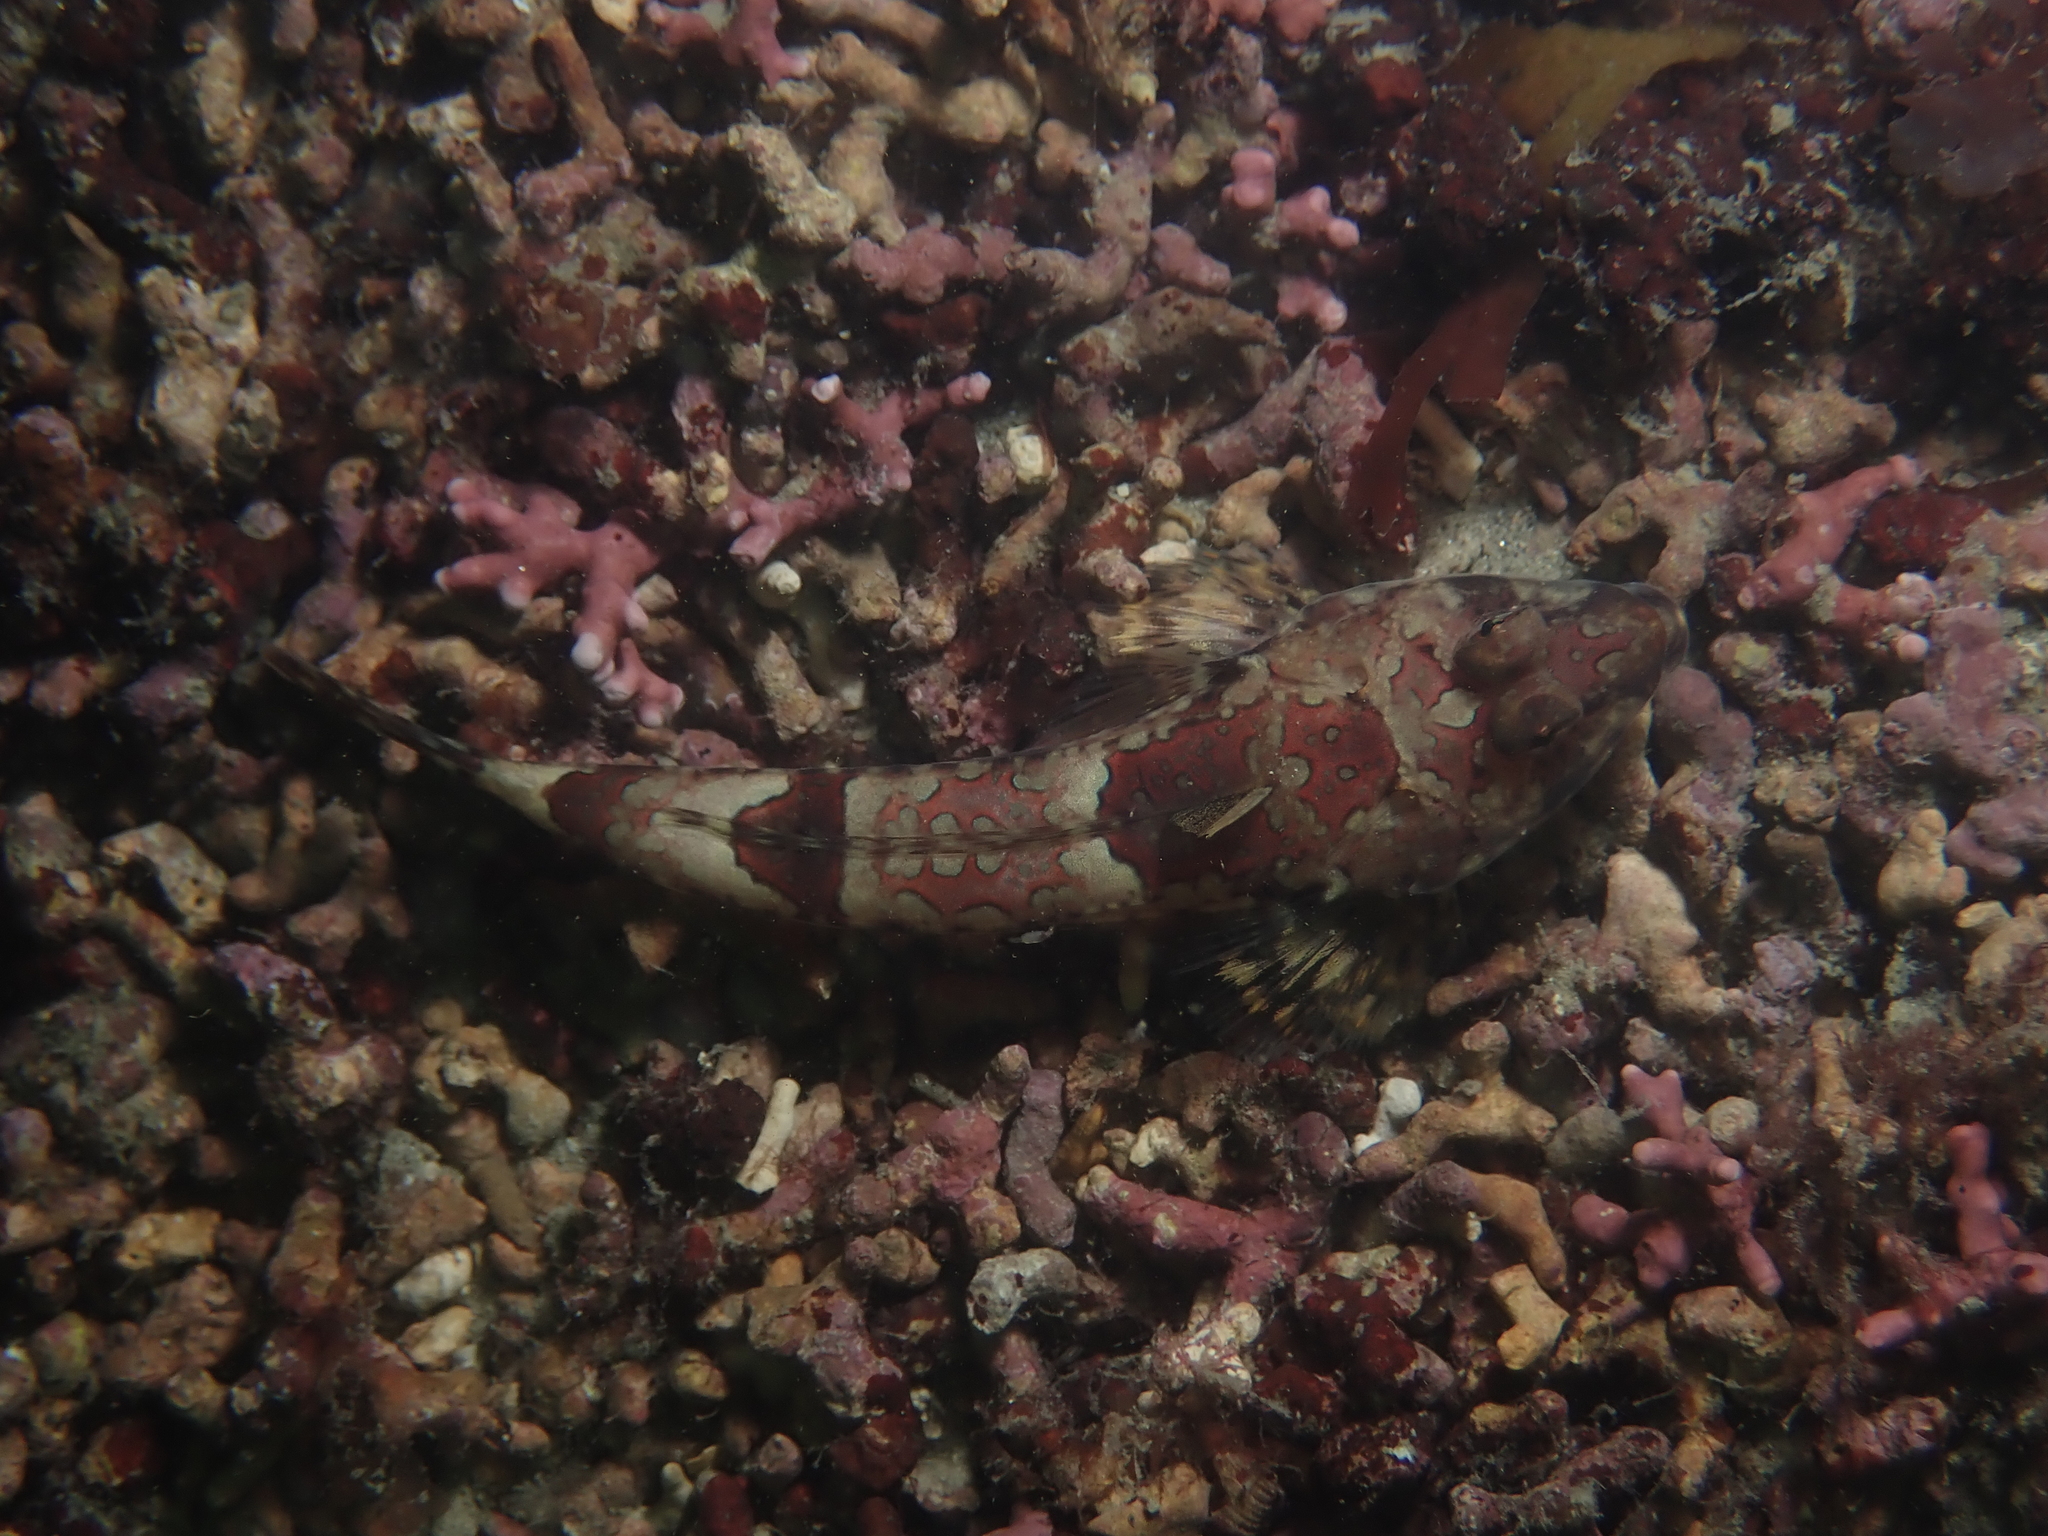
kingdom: Animalia
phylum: Chordata
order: Perciformes
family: Callionymidae
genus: Callionymus
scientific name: Callionymus lyra
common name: Dragonet
